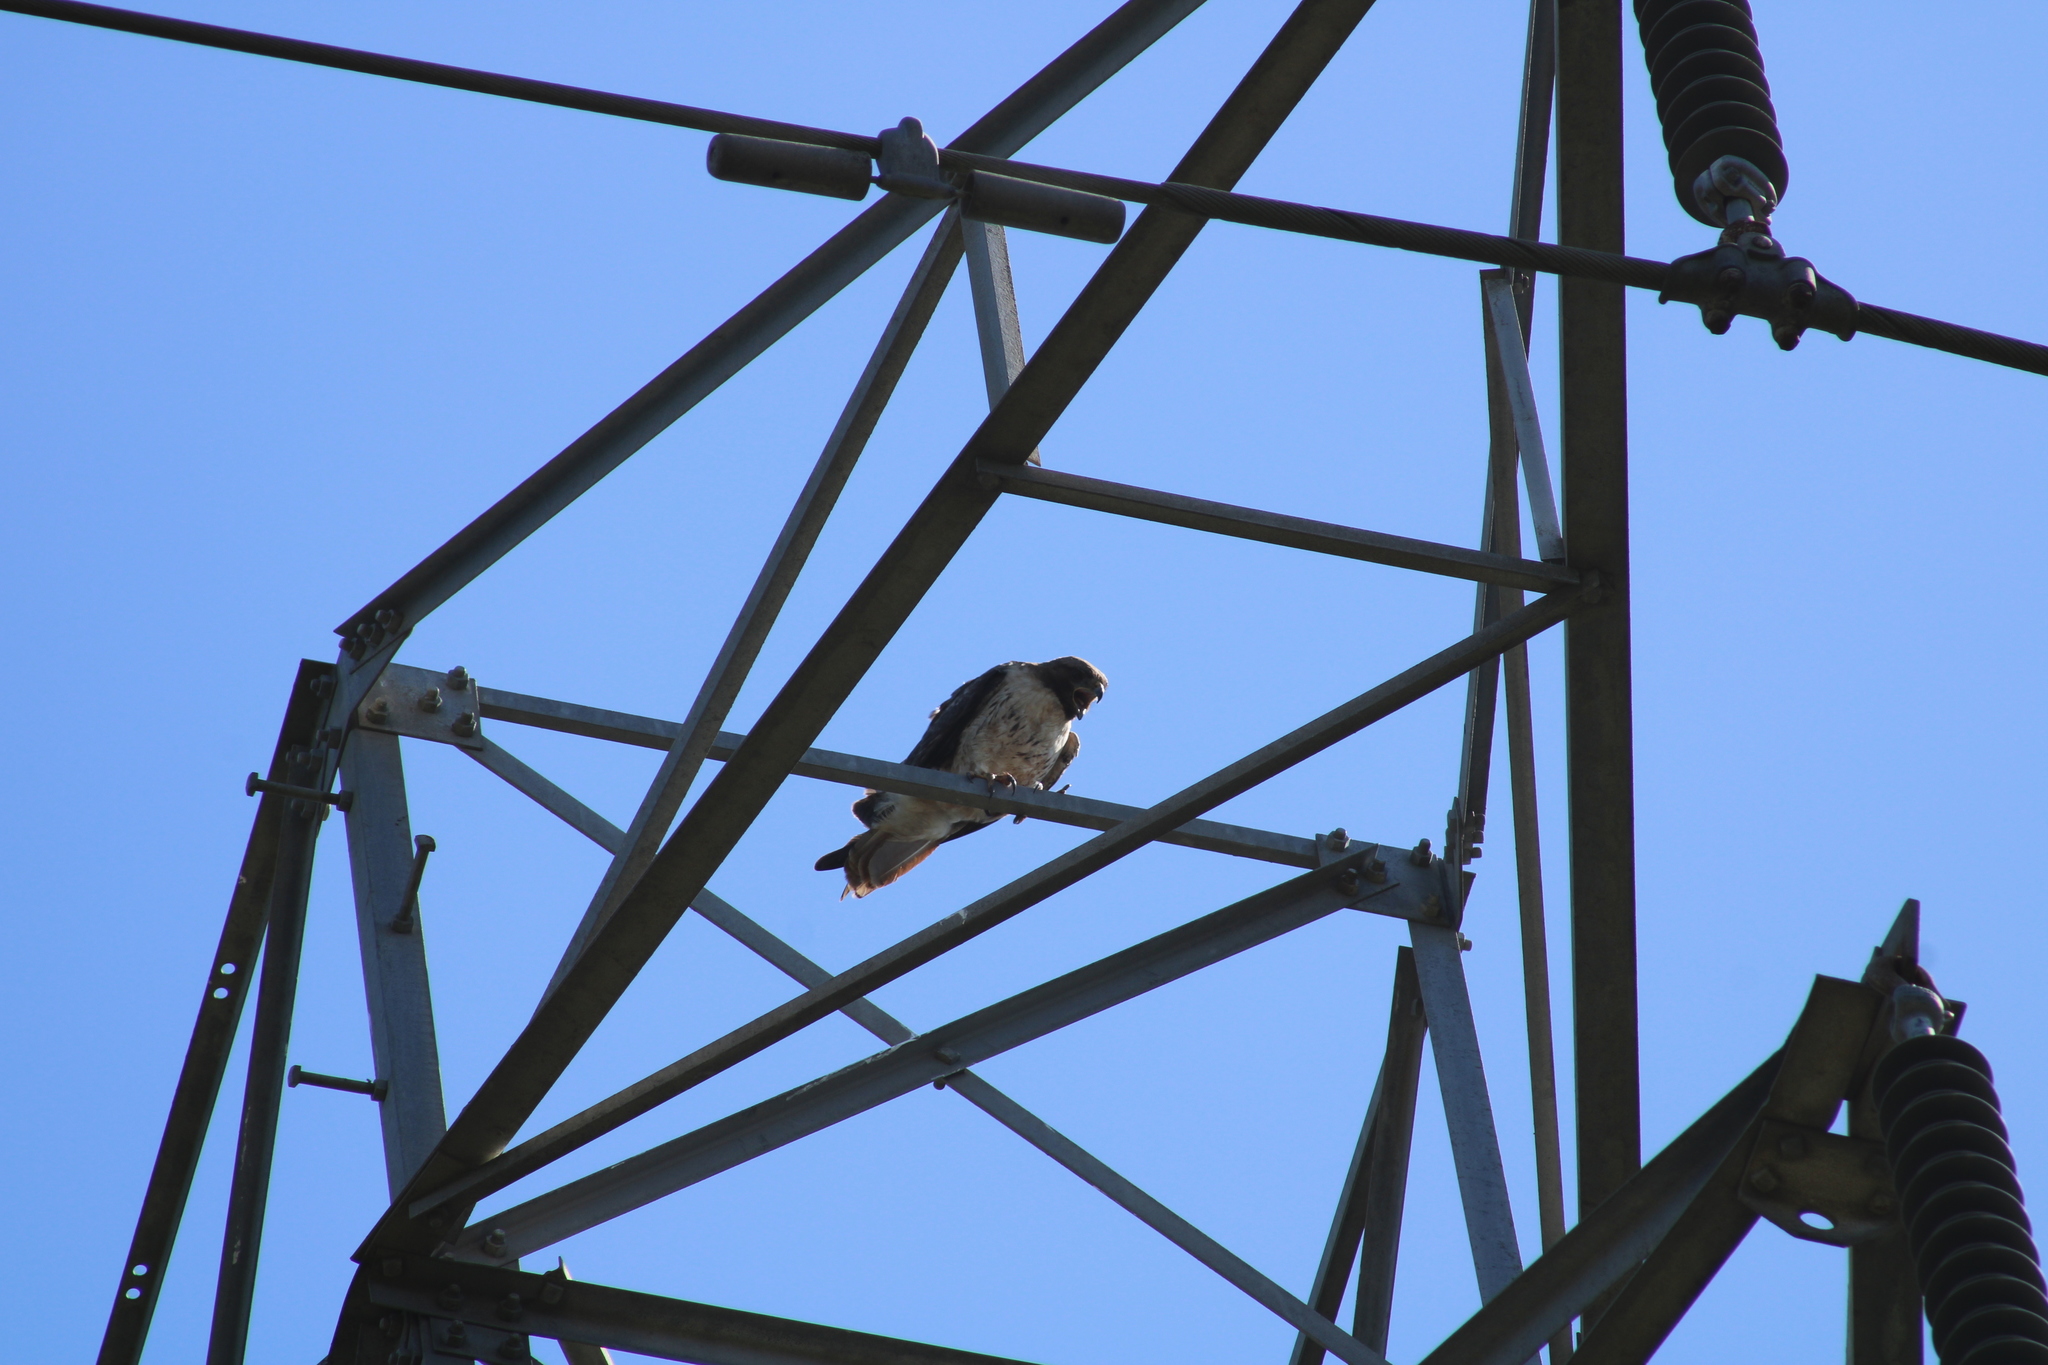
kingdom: Animalia
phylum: Chordata
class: Aves
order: Accipitriformes
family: Accipitridae
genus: Buteo
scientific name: Buteo jamaicensis
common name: Red-tailed hawk
